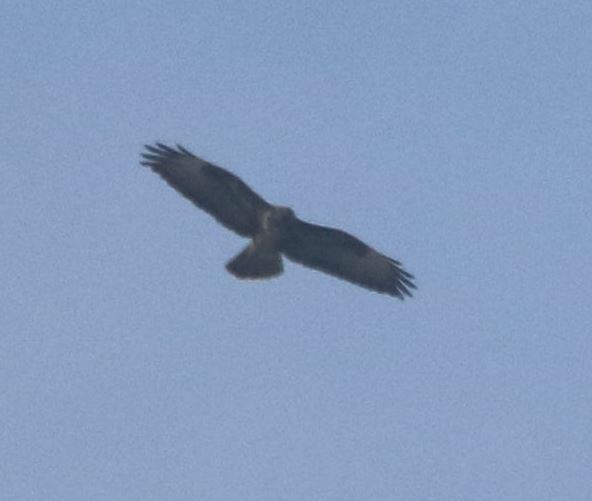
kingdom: Animalia
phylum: Chordata
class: Aves
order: Accipitriformes
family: Accipitridae
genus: Buteo
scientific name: Buteo buteo
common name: Common buzzard
